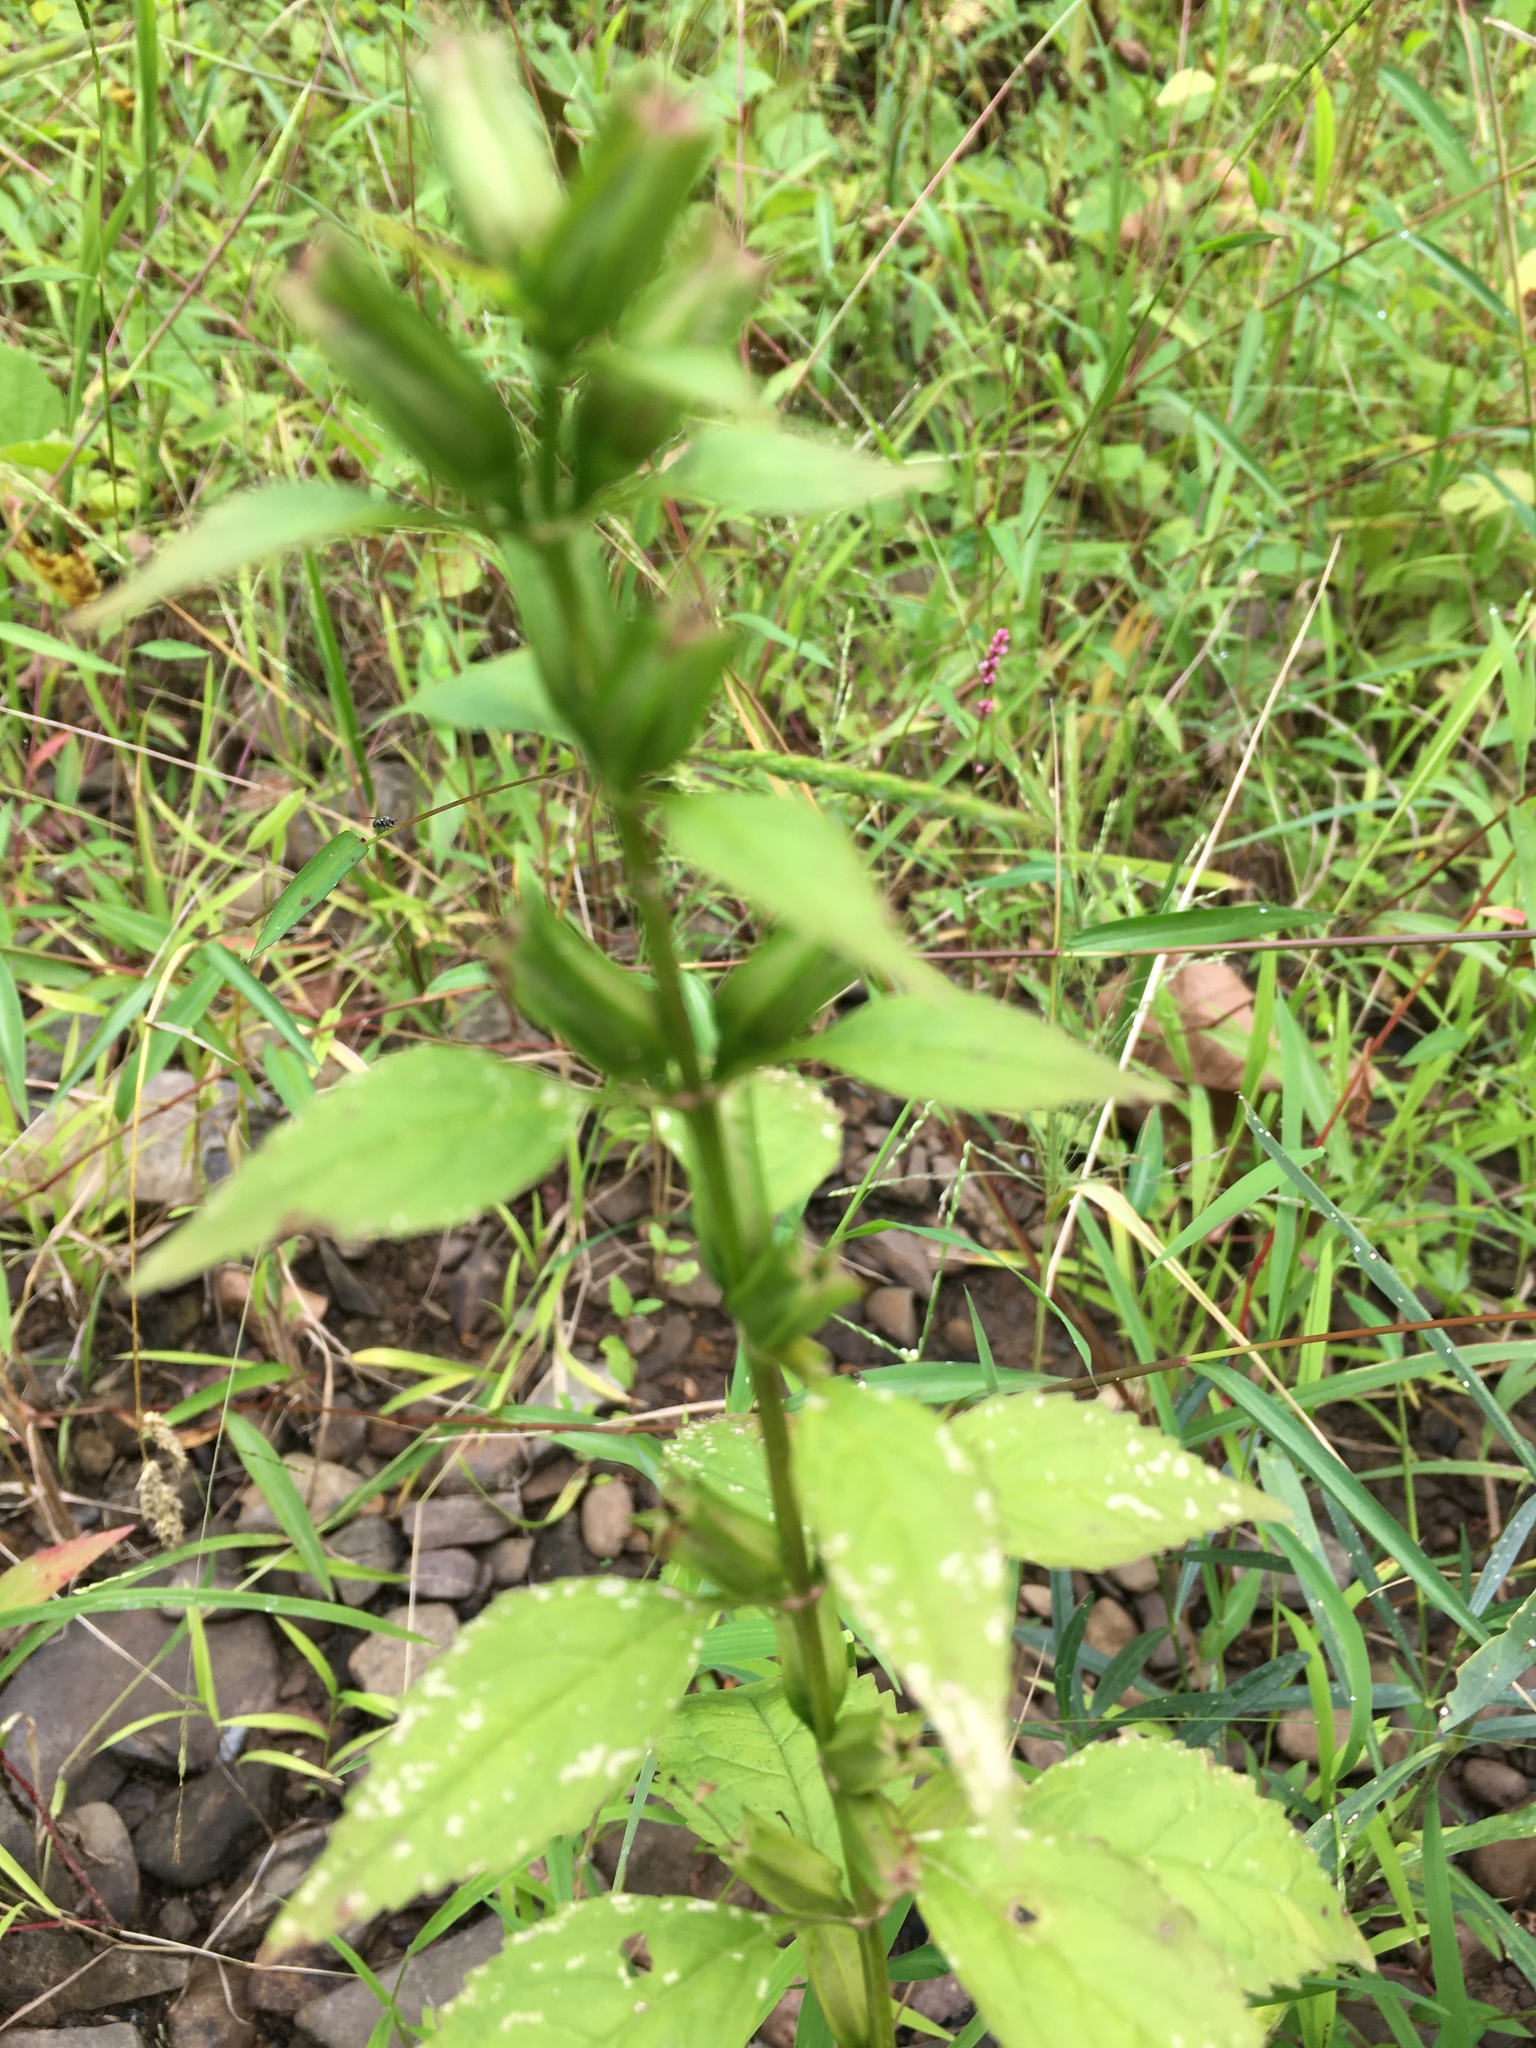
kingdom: Plantae
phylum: Tracheophyta
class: Magnoliopsida
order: Lamiales
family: Phrymaceae
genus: Mimulus
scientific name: Mimulus alatus
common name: Sharp-wing monkey-flower
